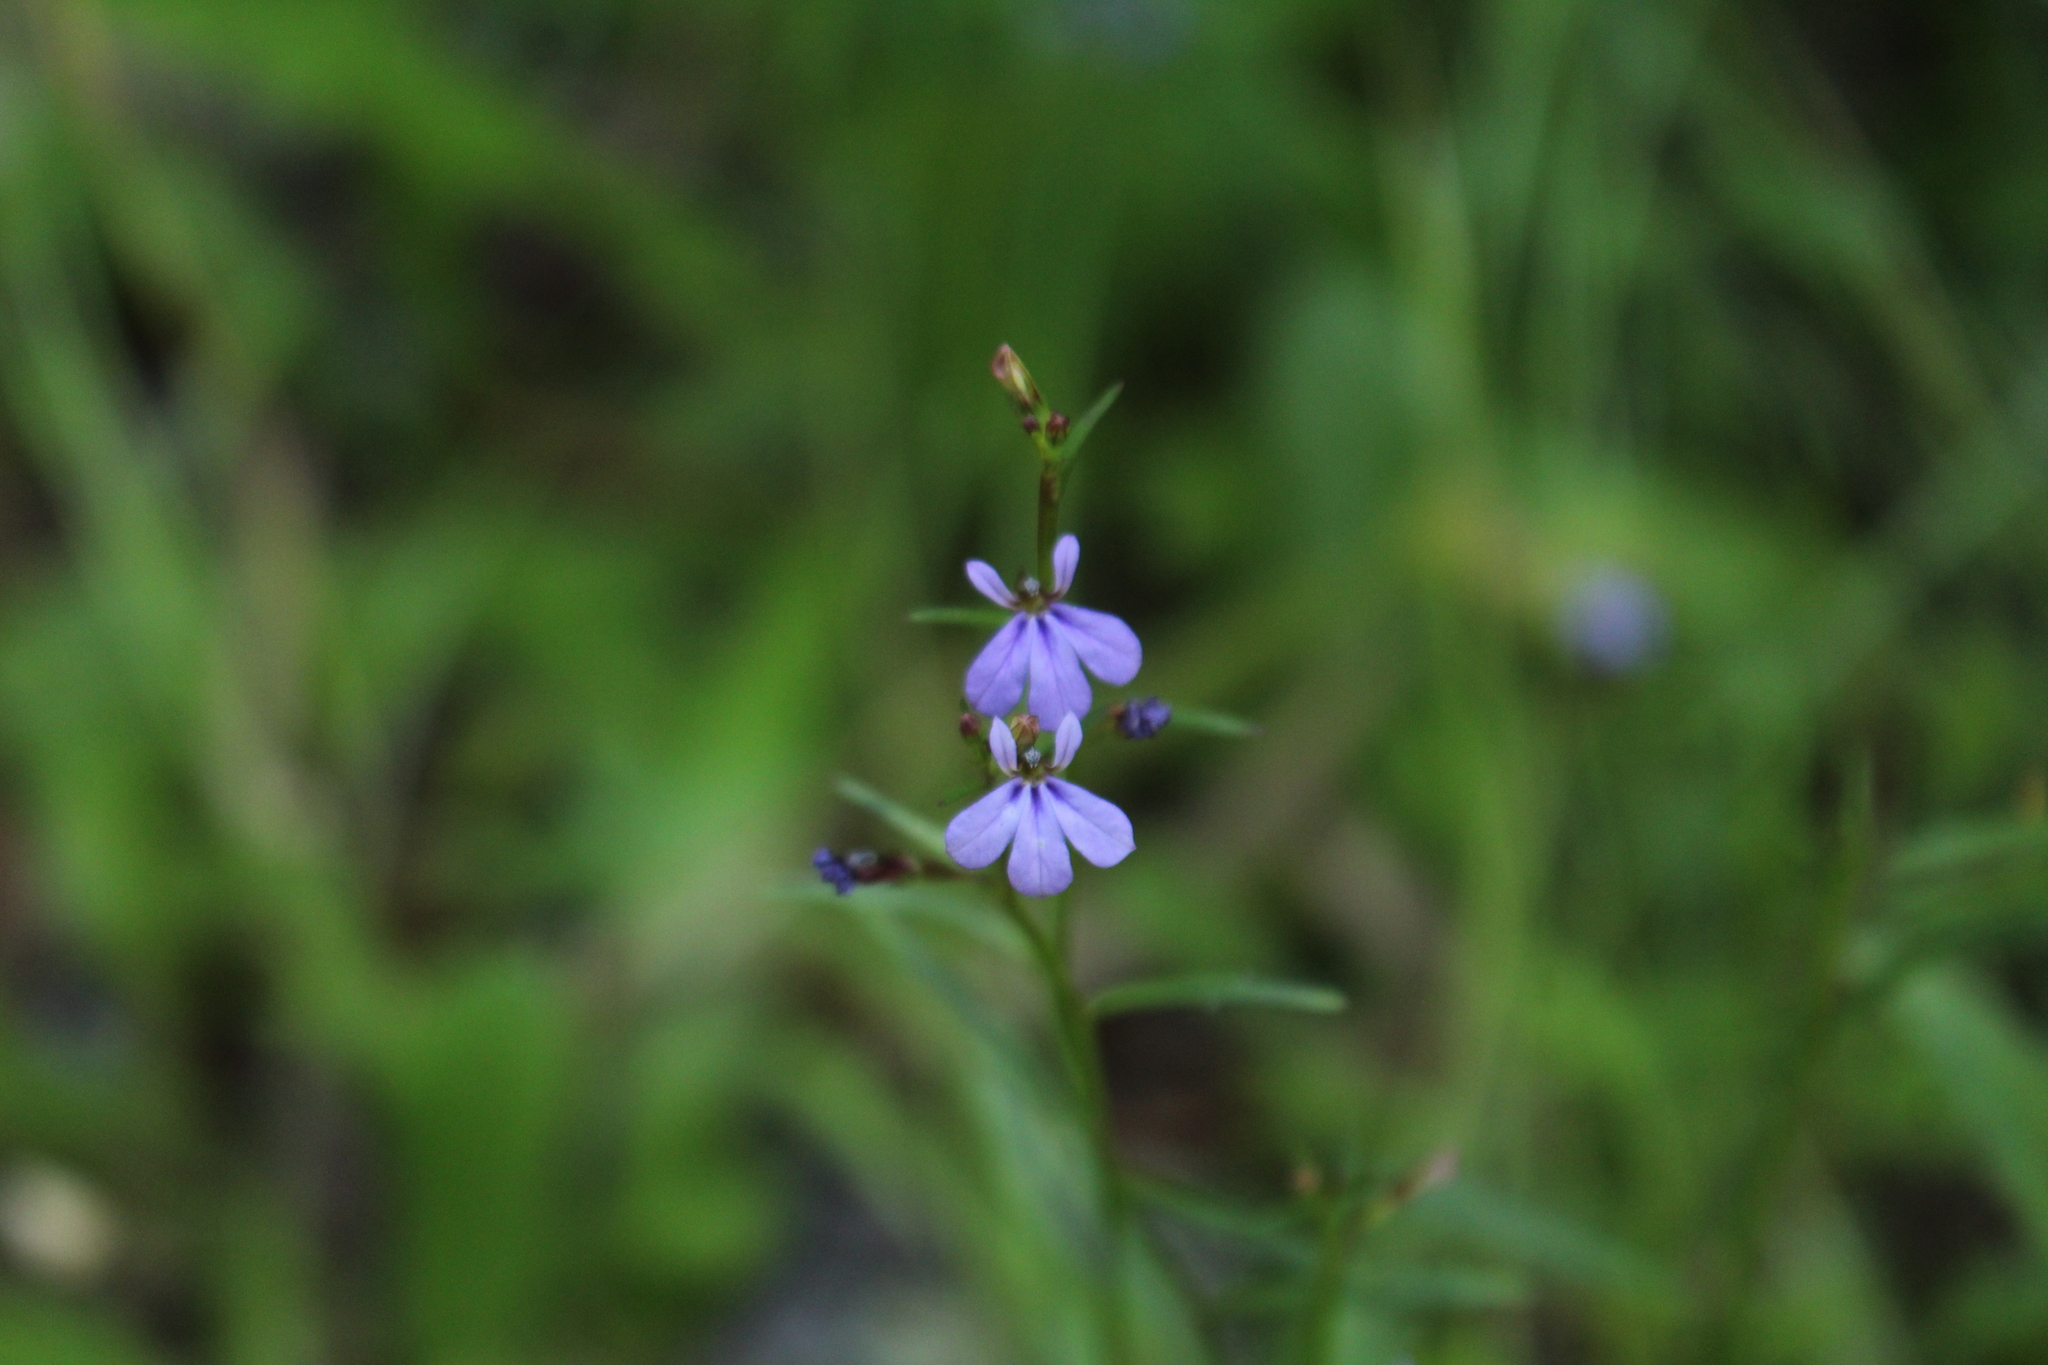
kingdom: Plantae
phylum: Tracheophyta
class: Magnoliopsida
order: Asterales
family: Campanulaceae
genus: Lobelia
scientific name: Lobelia anceps
